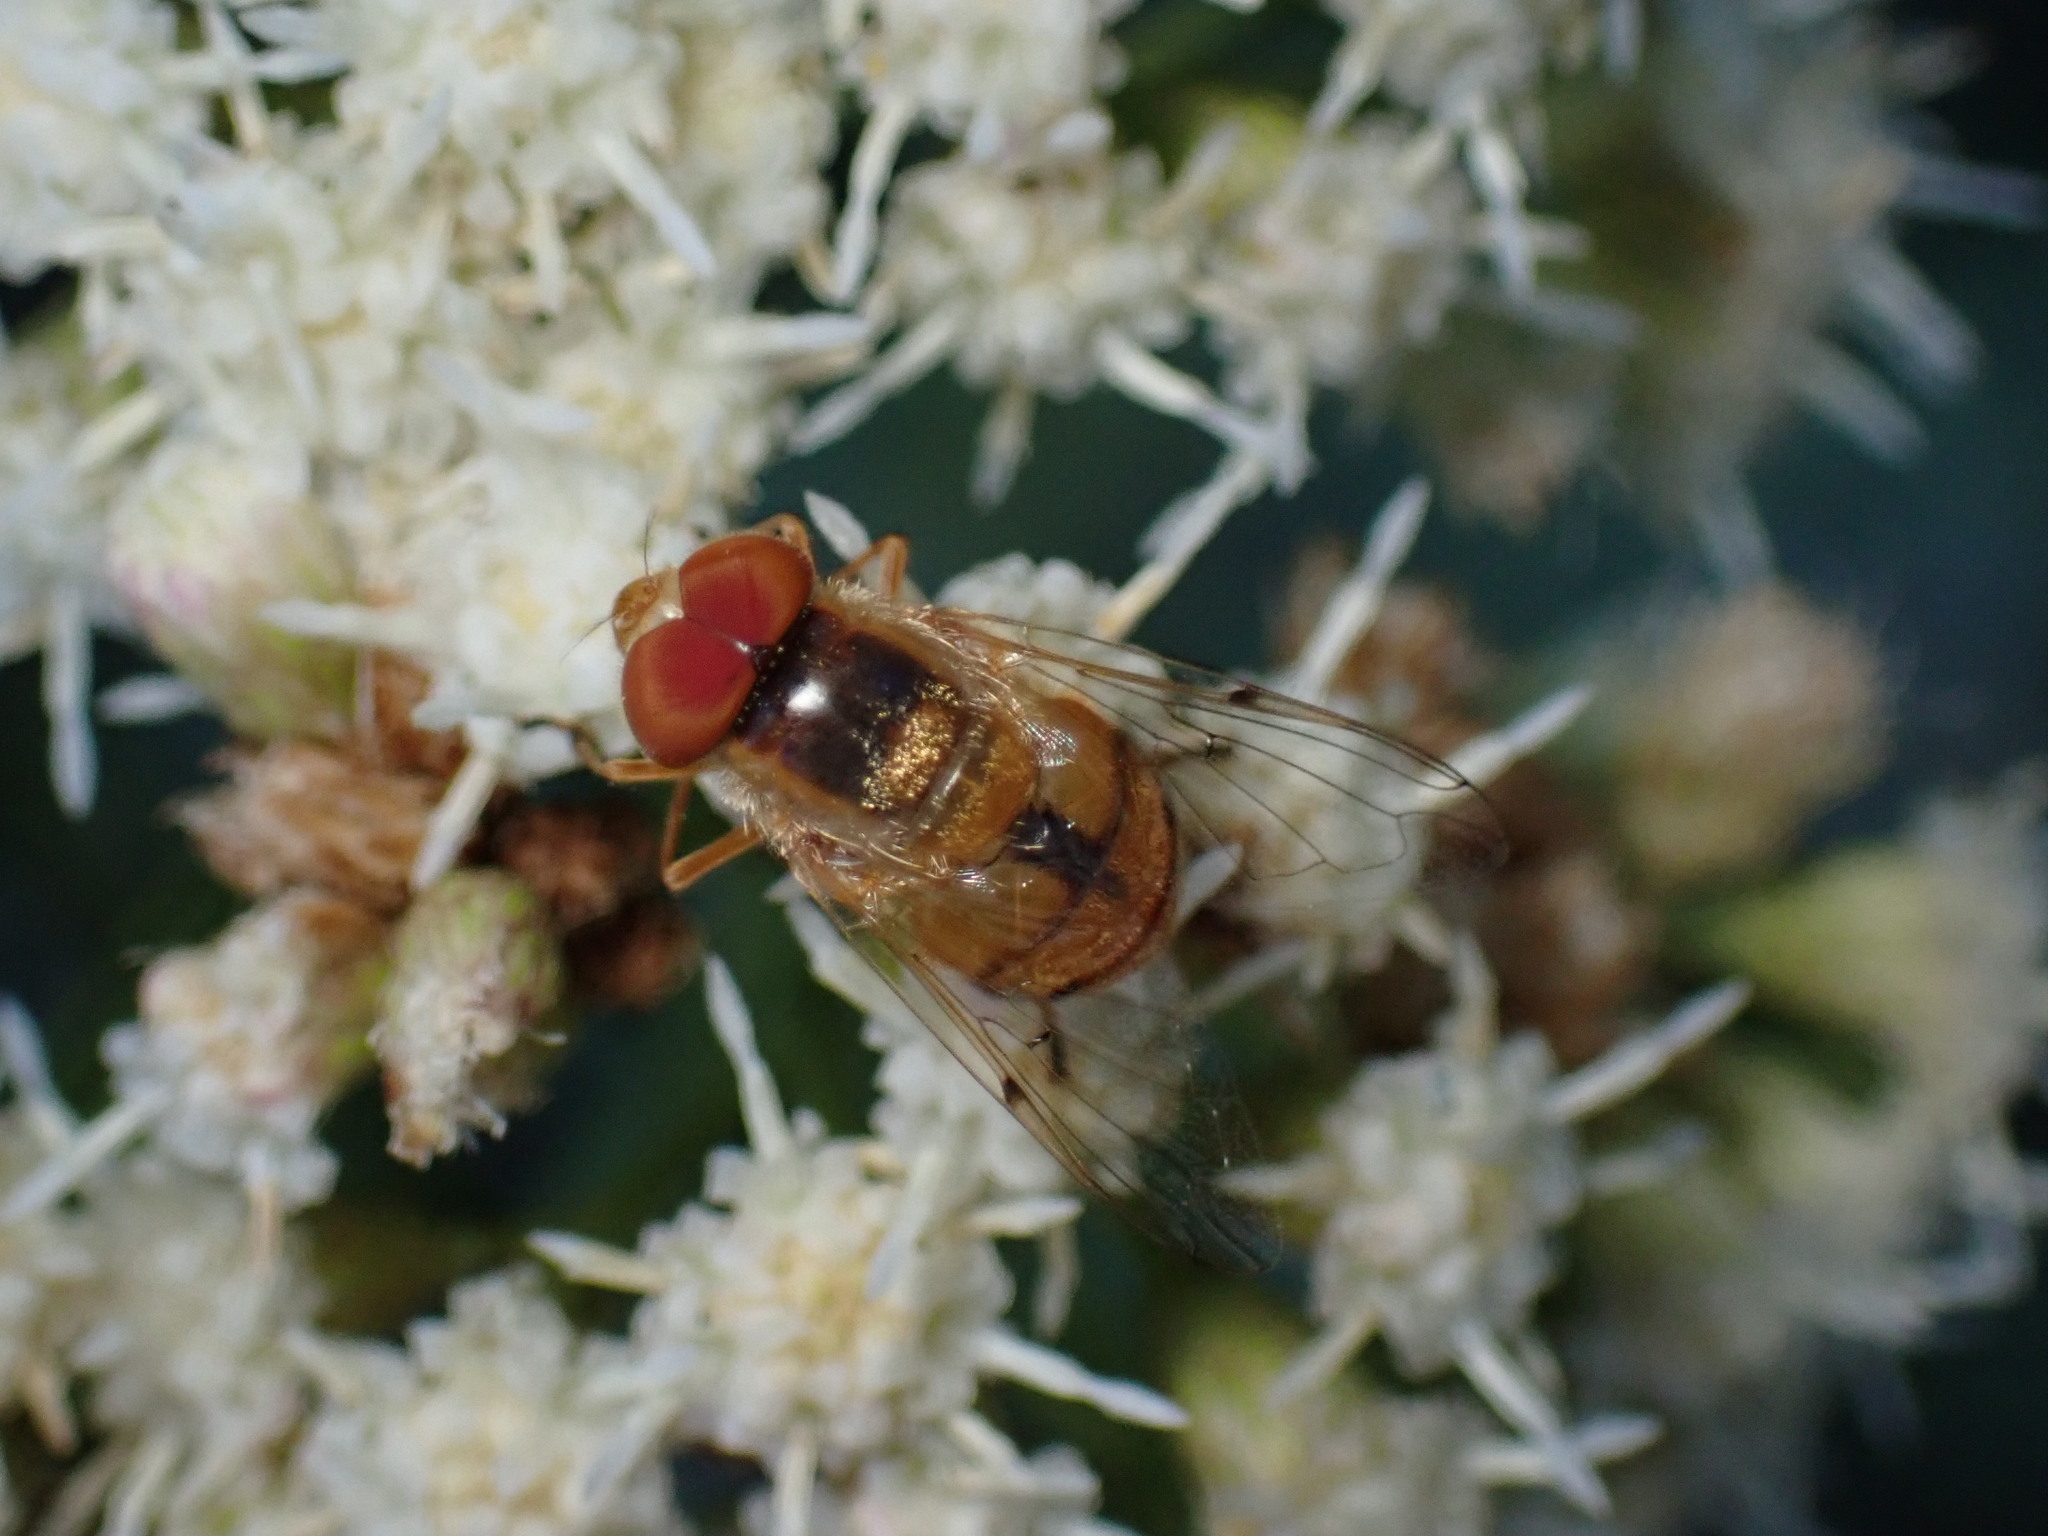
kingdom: Animalia
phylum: Arthropoda
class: Insecta
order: Diptera
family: Syrphidae
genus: Copestylum
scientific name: Copestylum sexmaculatum
